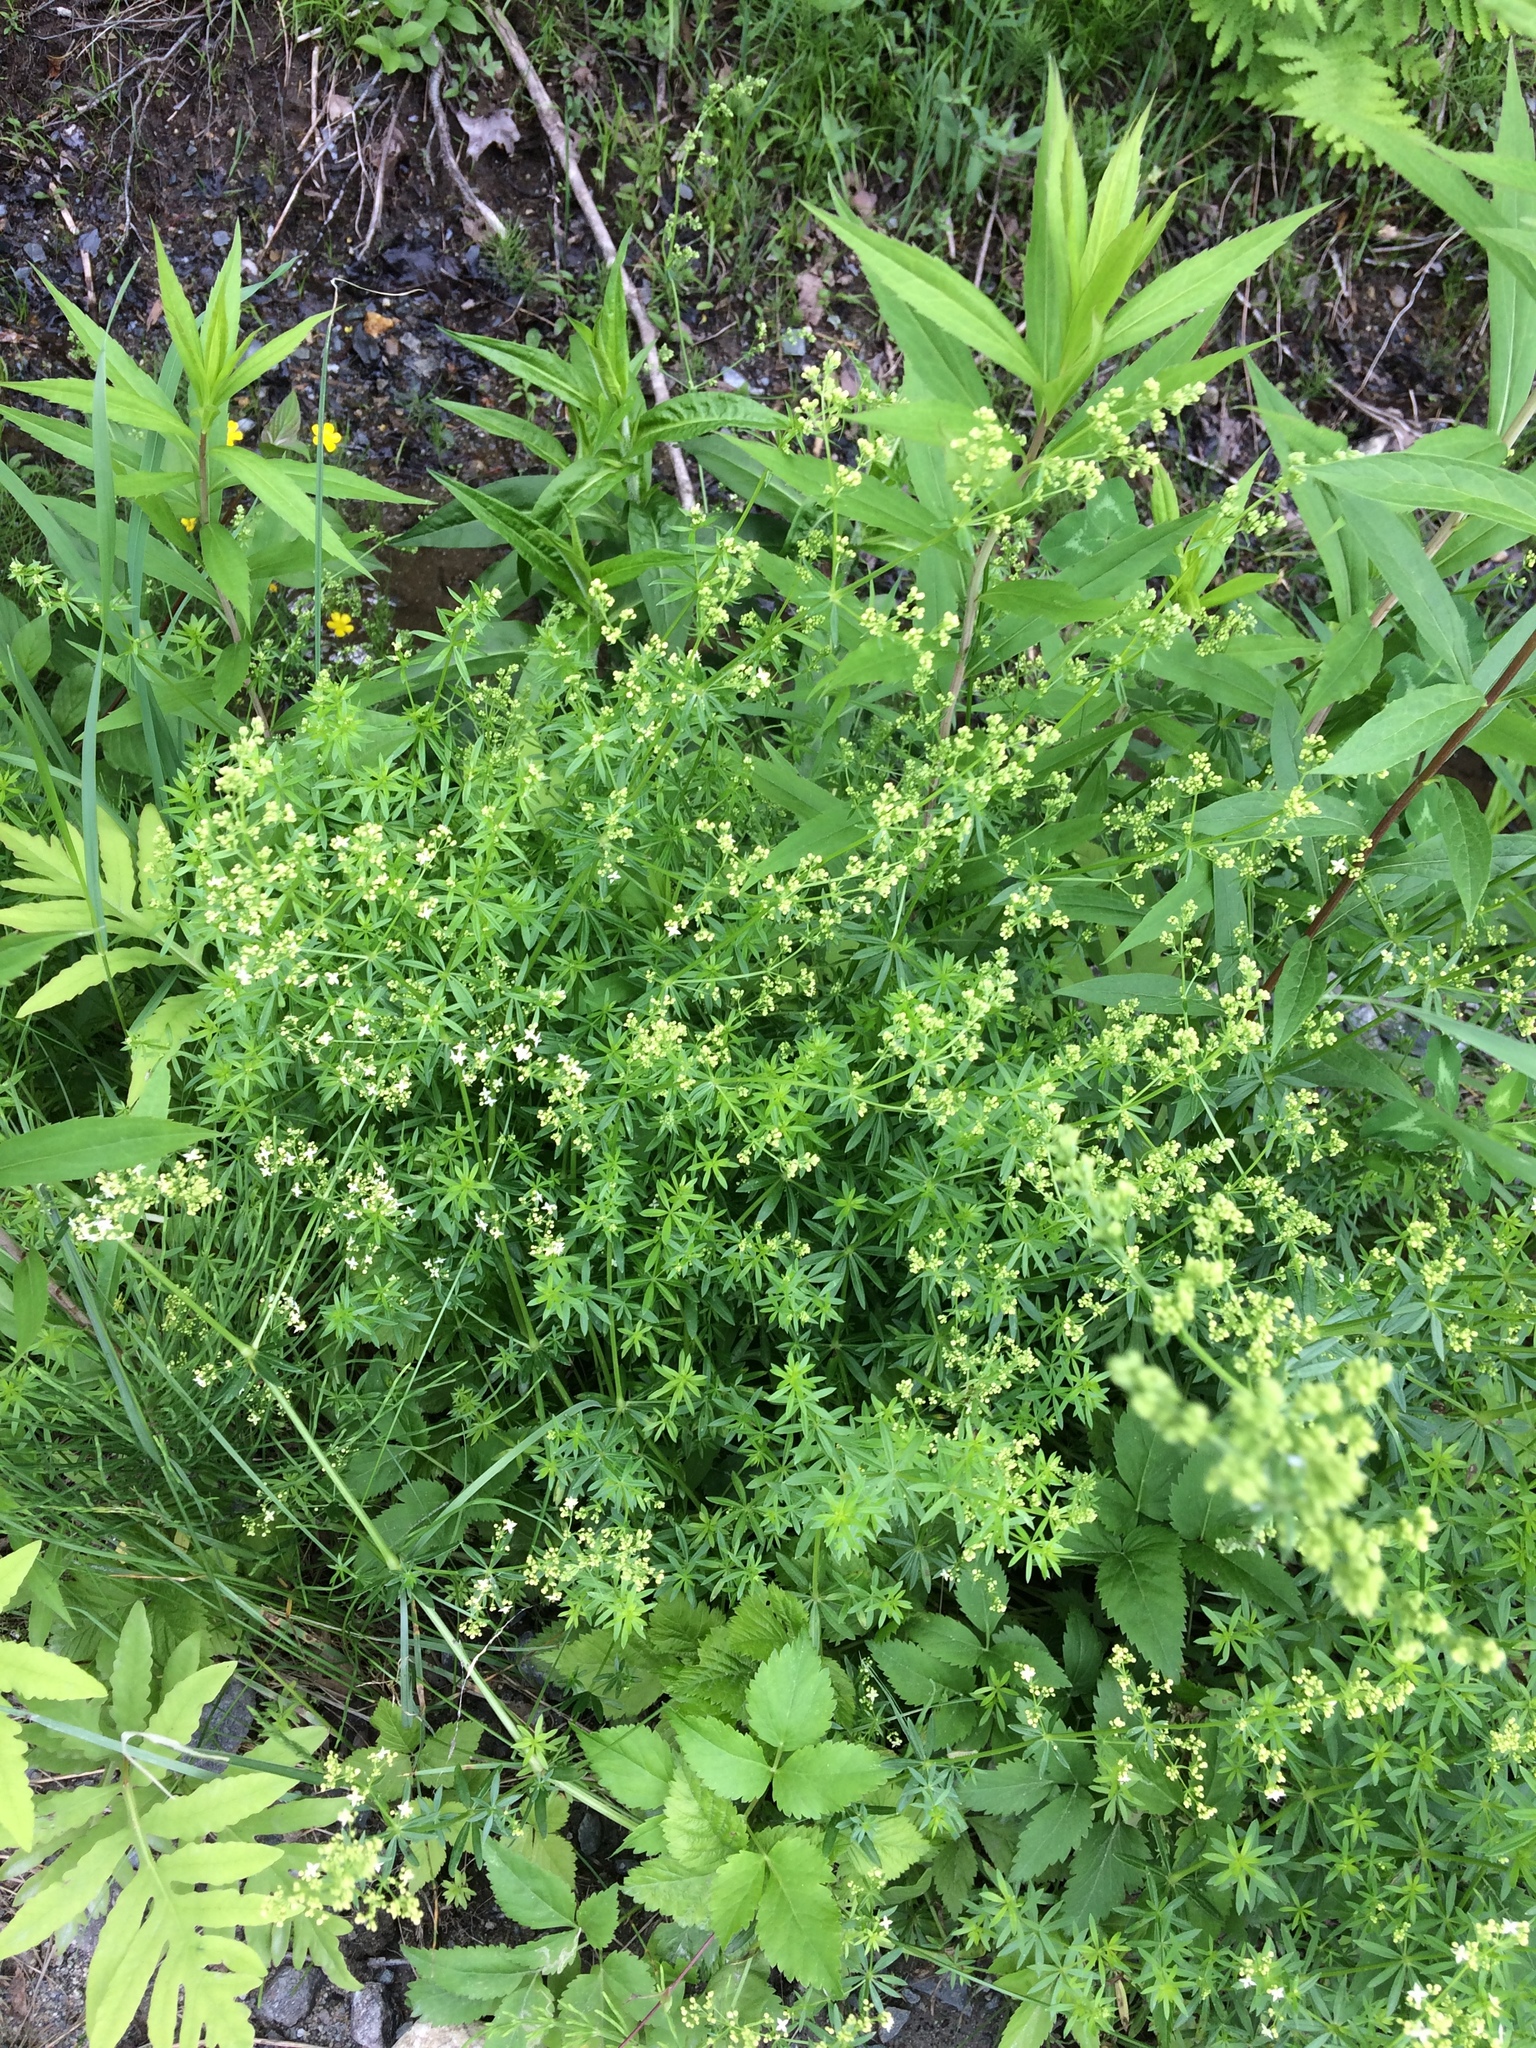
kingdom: Plantae
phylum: Tracheophyta
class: Magnoliopsida
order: Gentianales
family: Rubiaceae
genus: Galium
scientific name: Galium mollugo
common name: Hedge bedstraw
